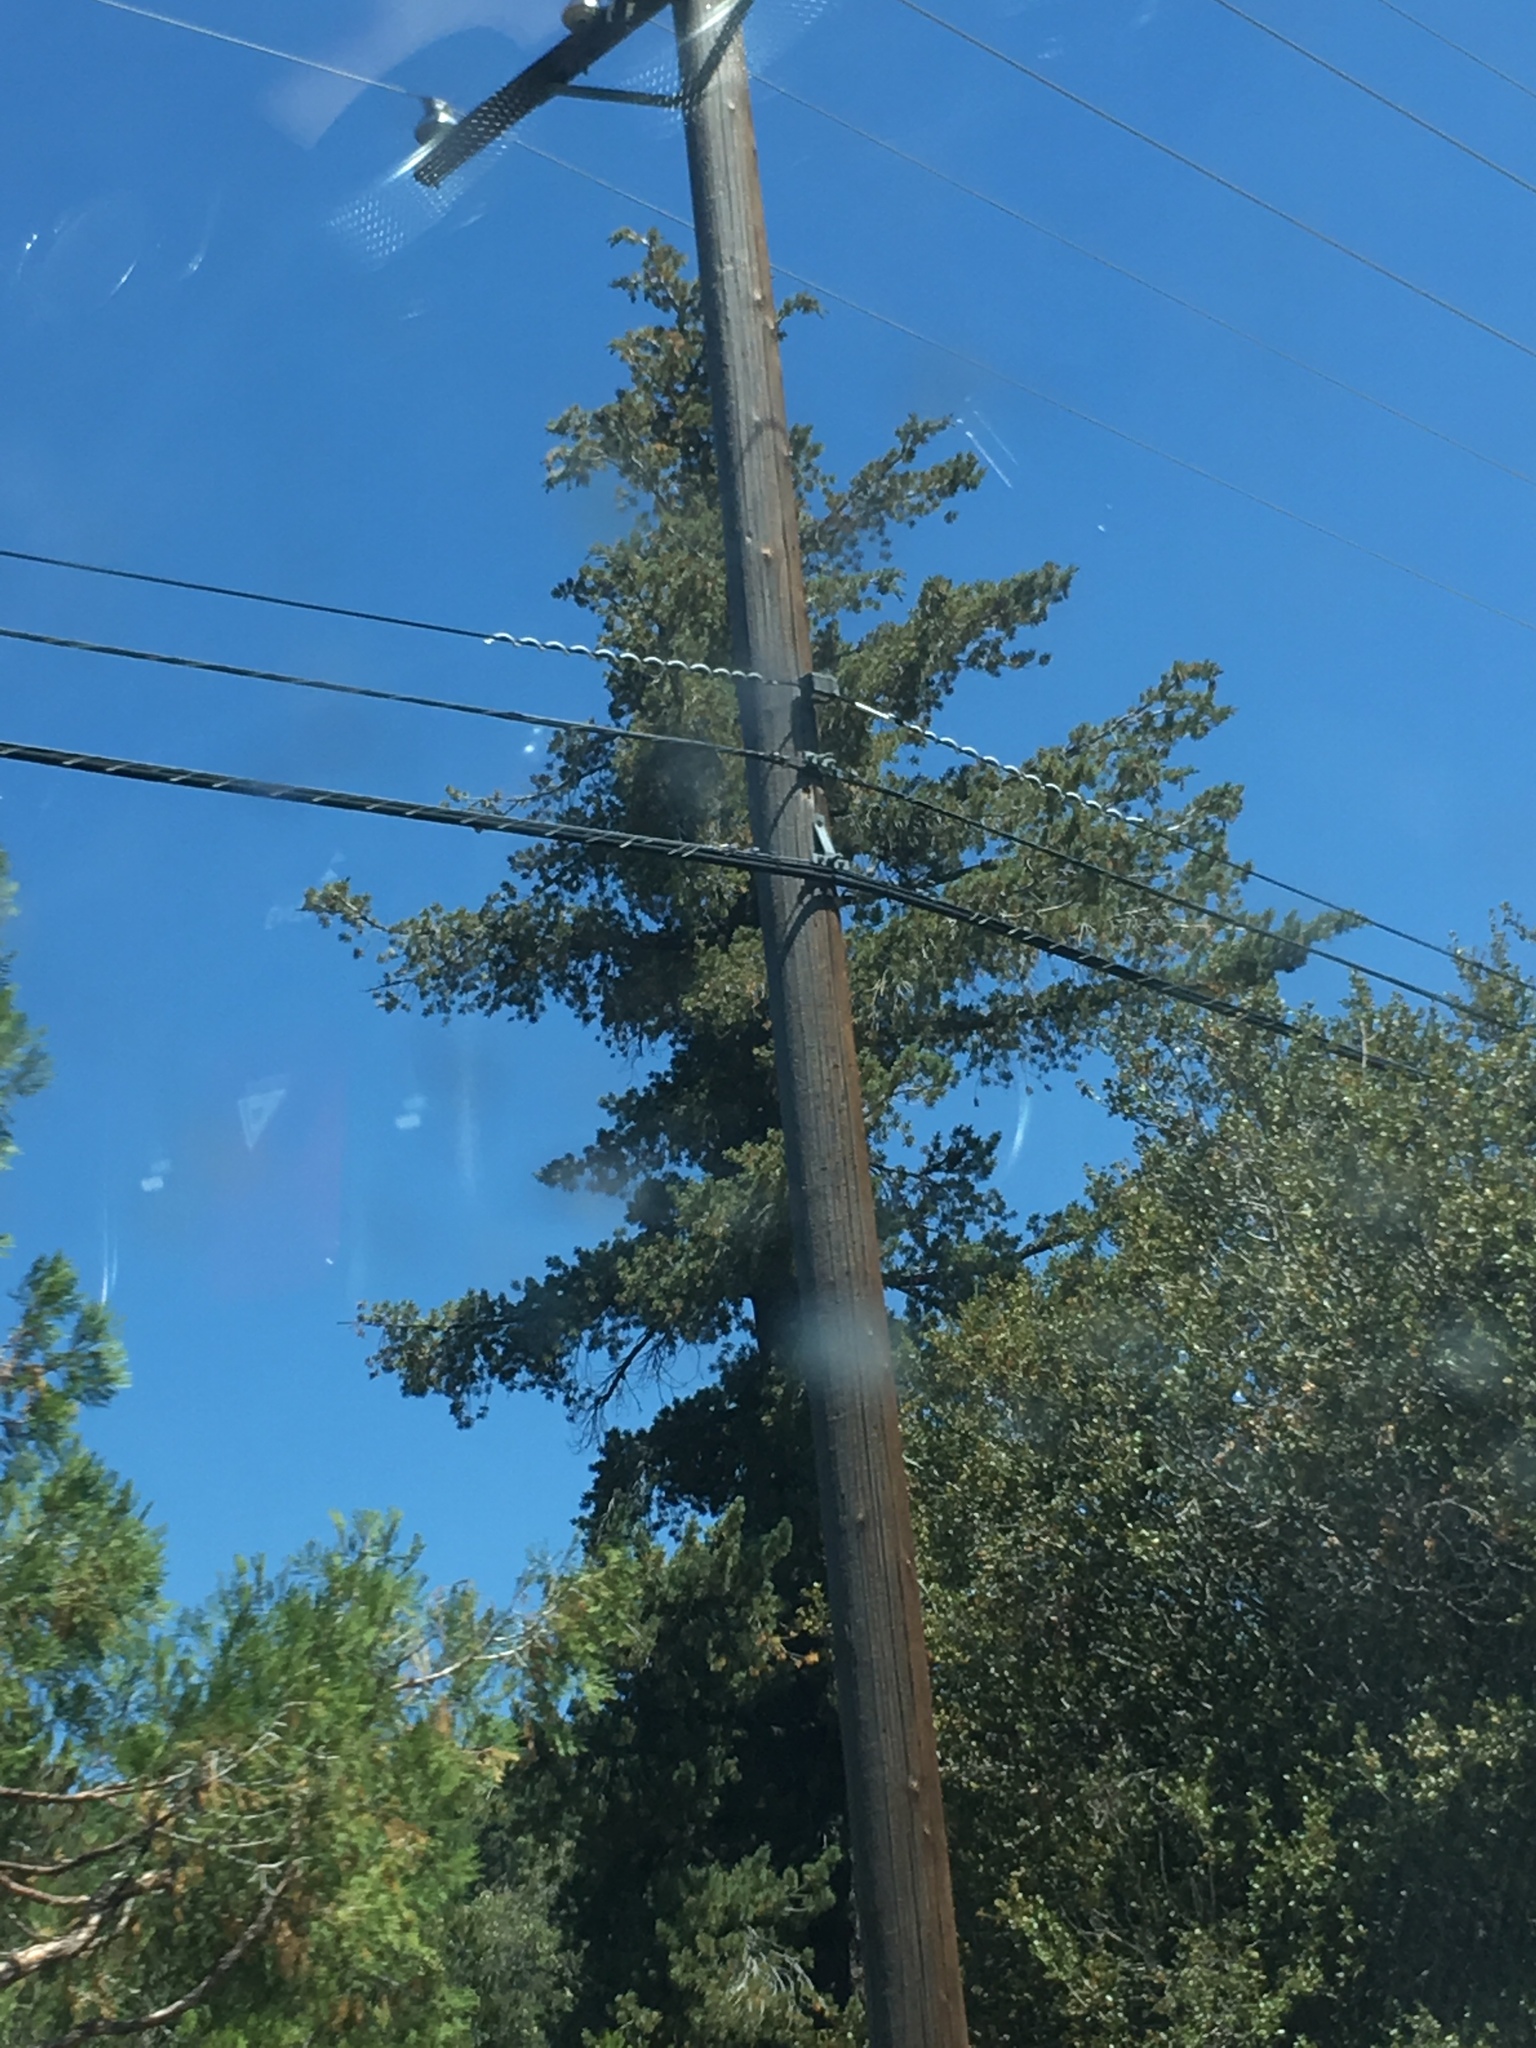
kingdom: Plantae
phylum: Tracheophyta
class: Pinopsida
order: Pinales
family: Pinaceae
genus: Pinus
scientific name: Pinus lambertiana
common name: Sugar pine
